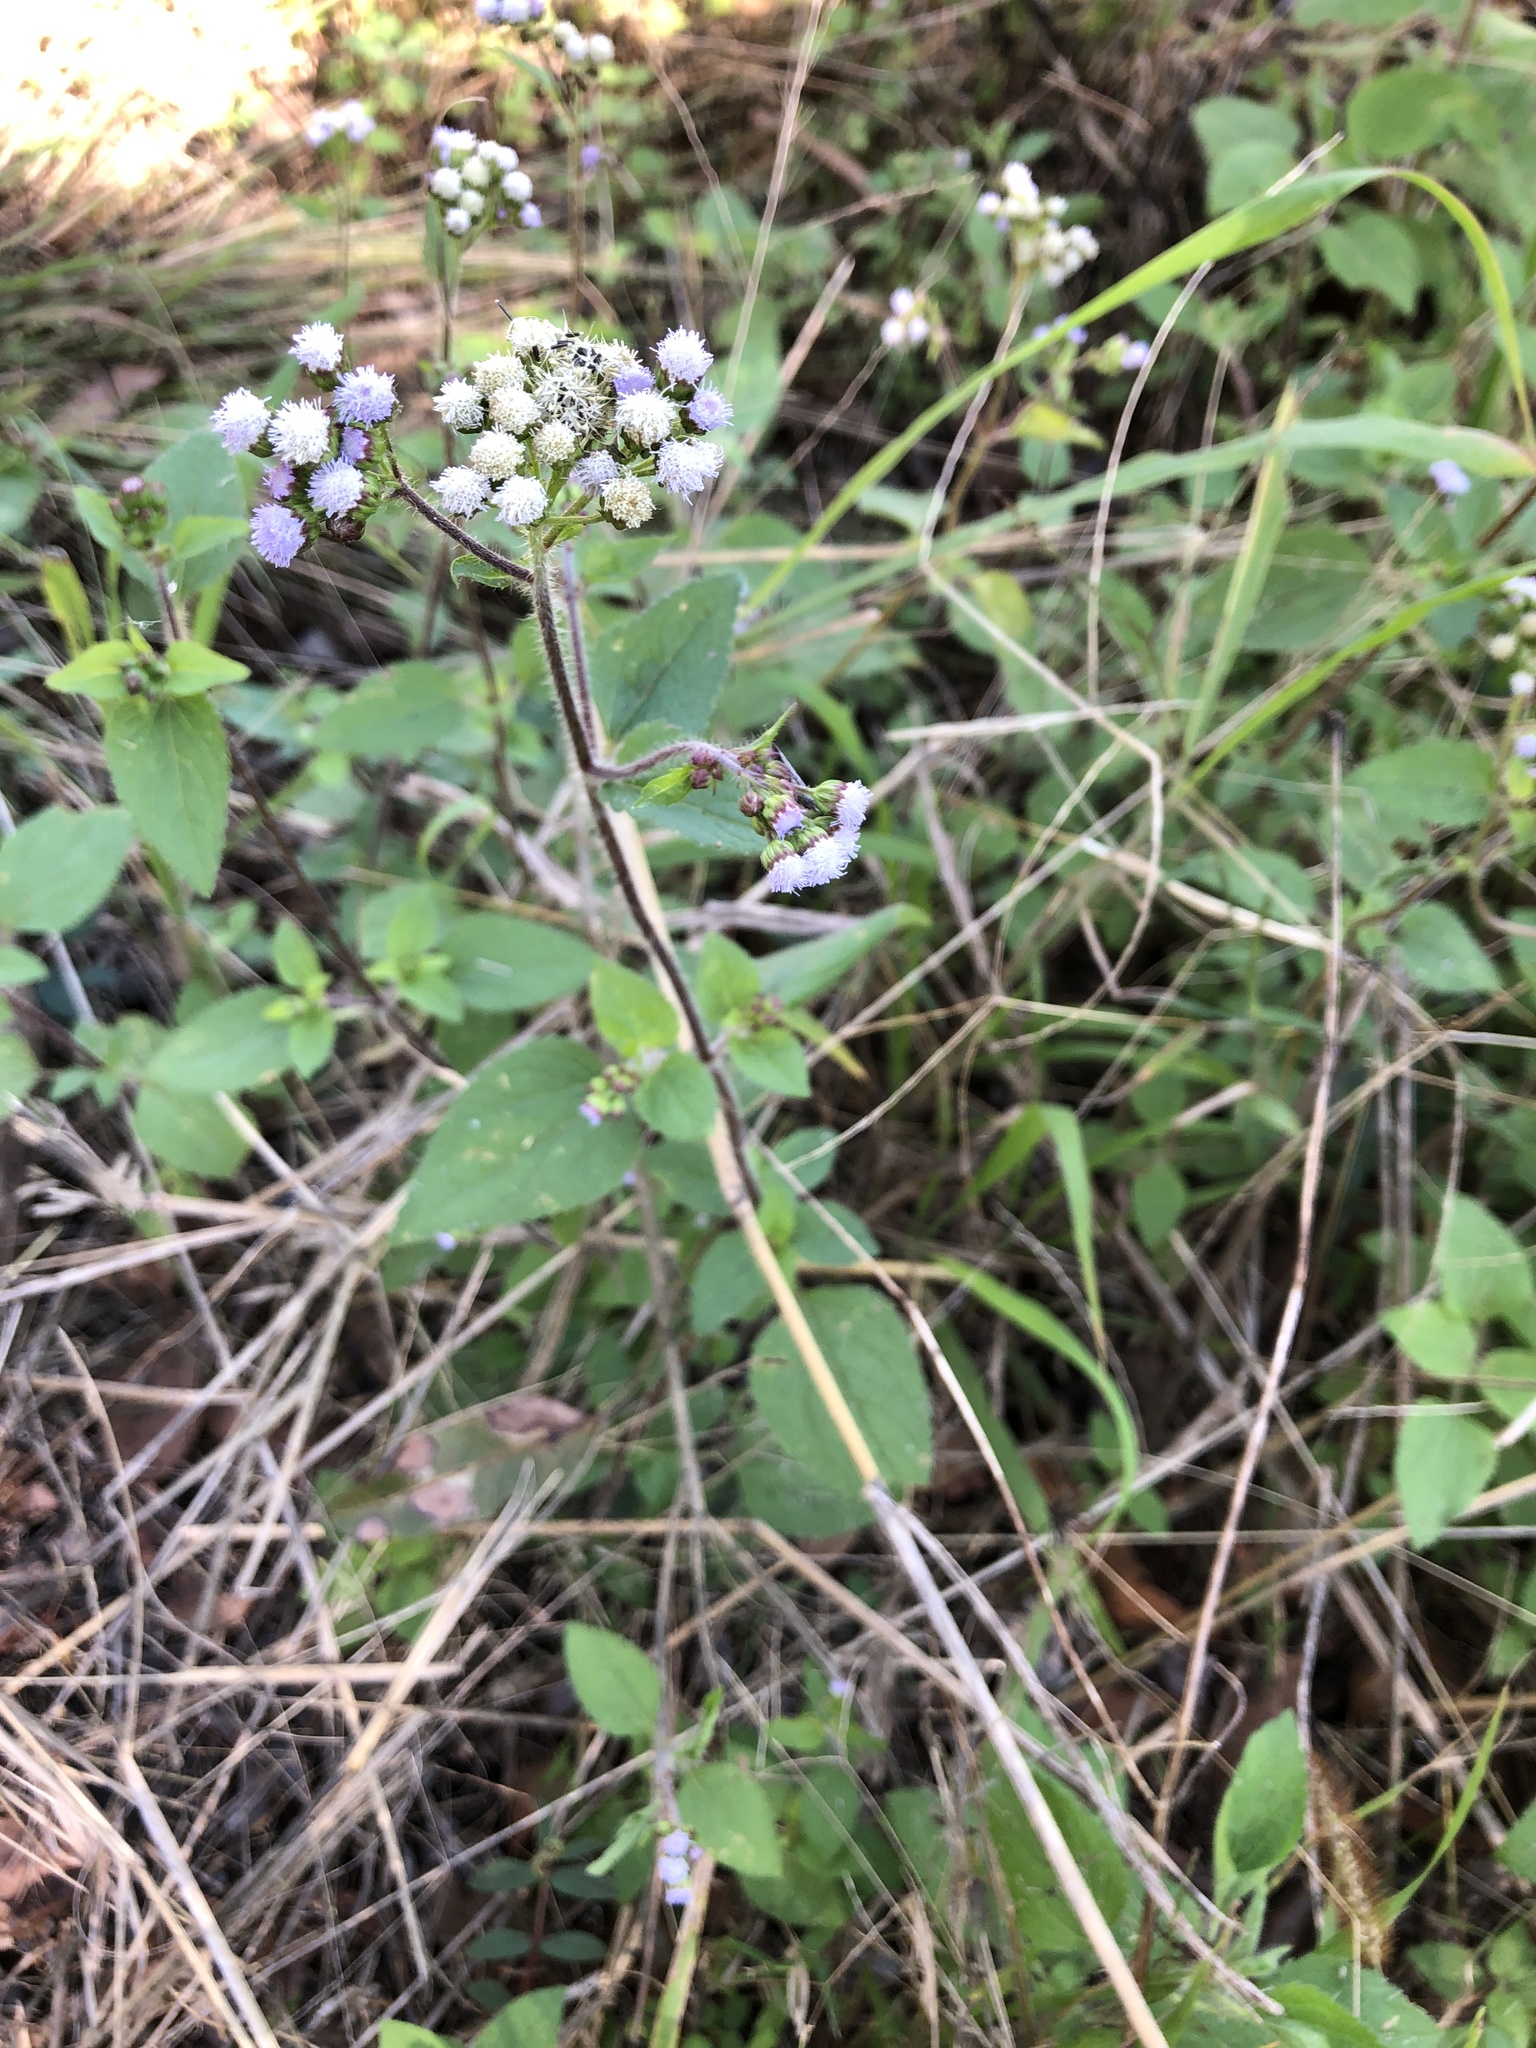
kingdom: Plantae
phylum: Tracheophyta
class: Magnoliopsida
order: Asterales
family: Asteraceae
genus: Ageratum
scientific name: Ageratum conyzoides
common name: Tropical whiteweed
